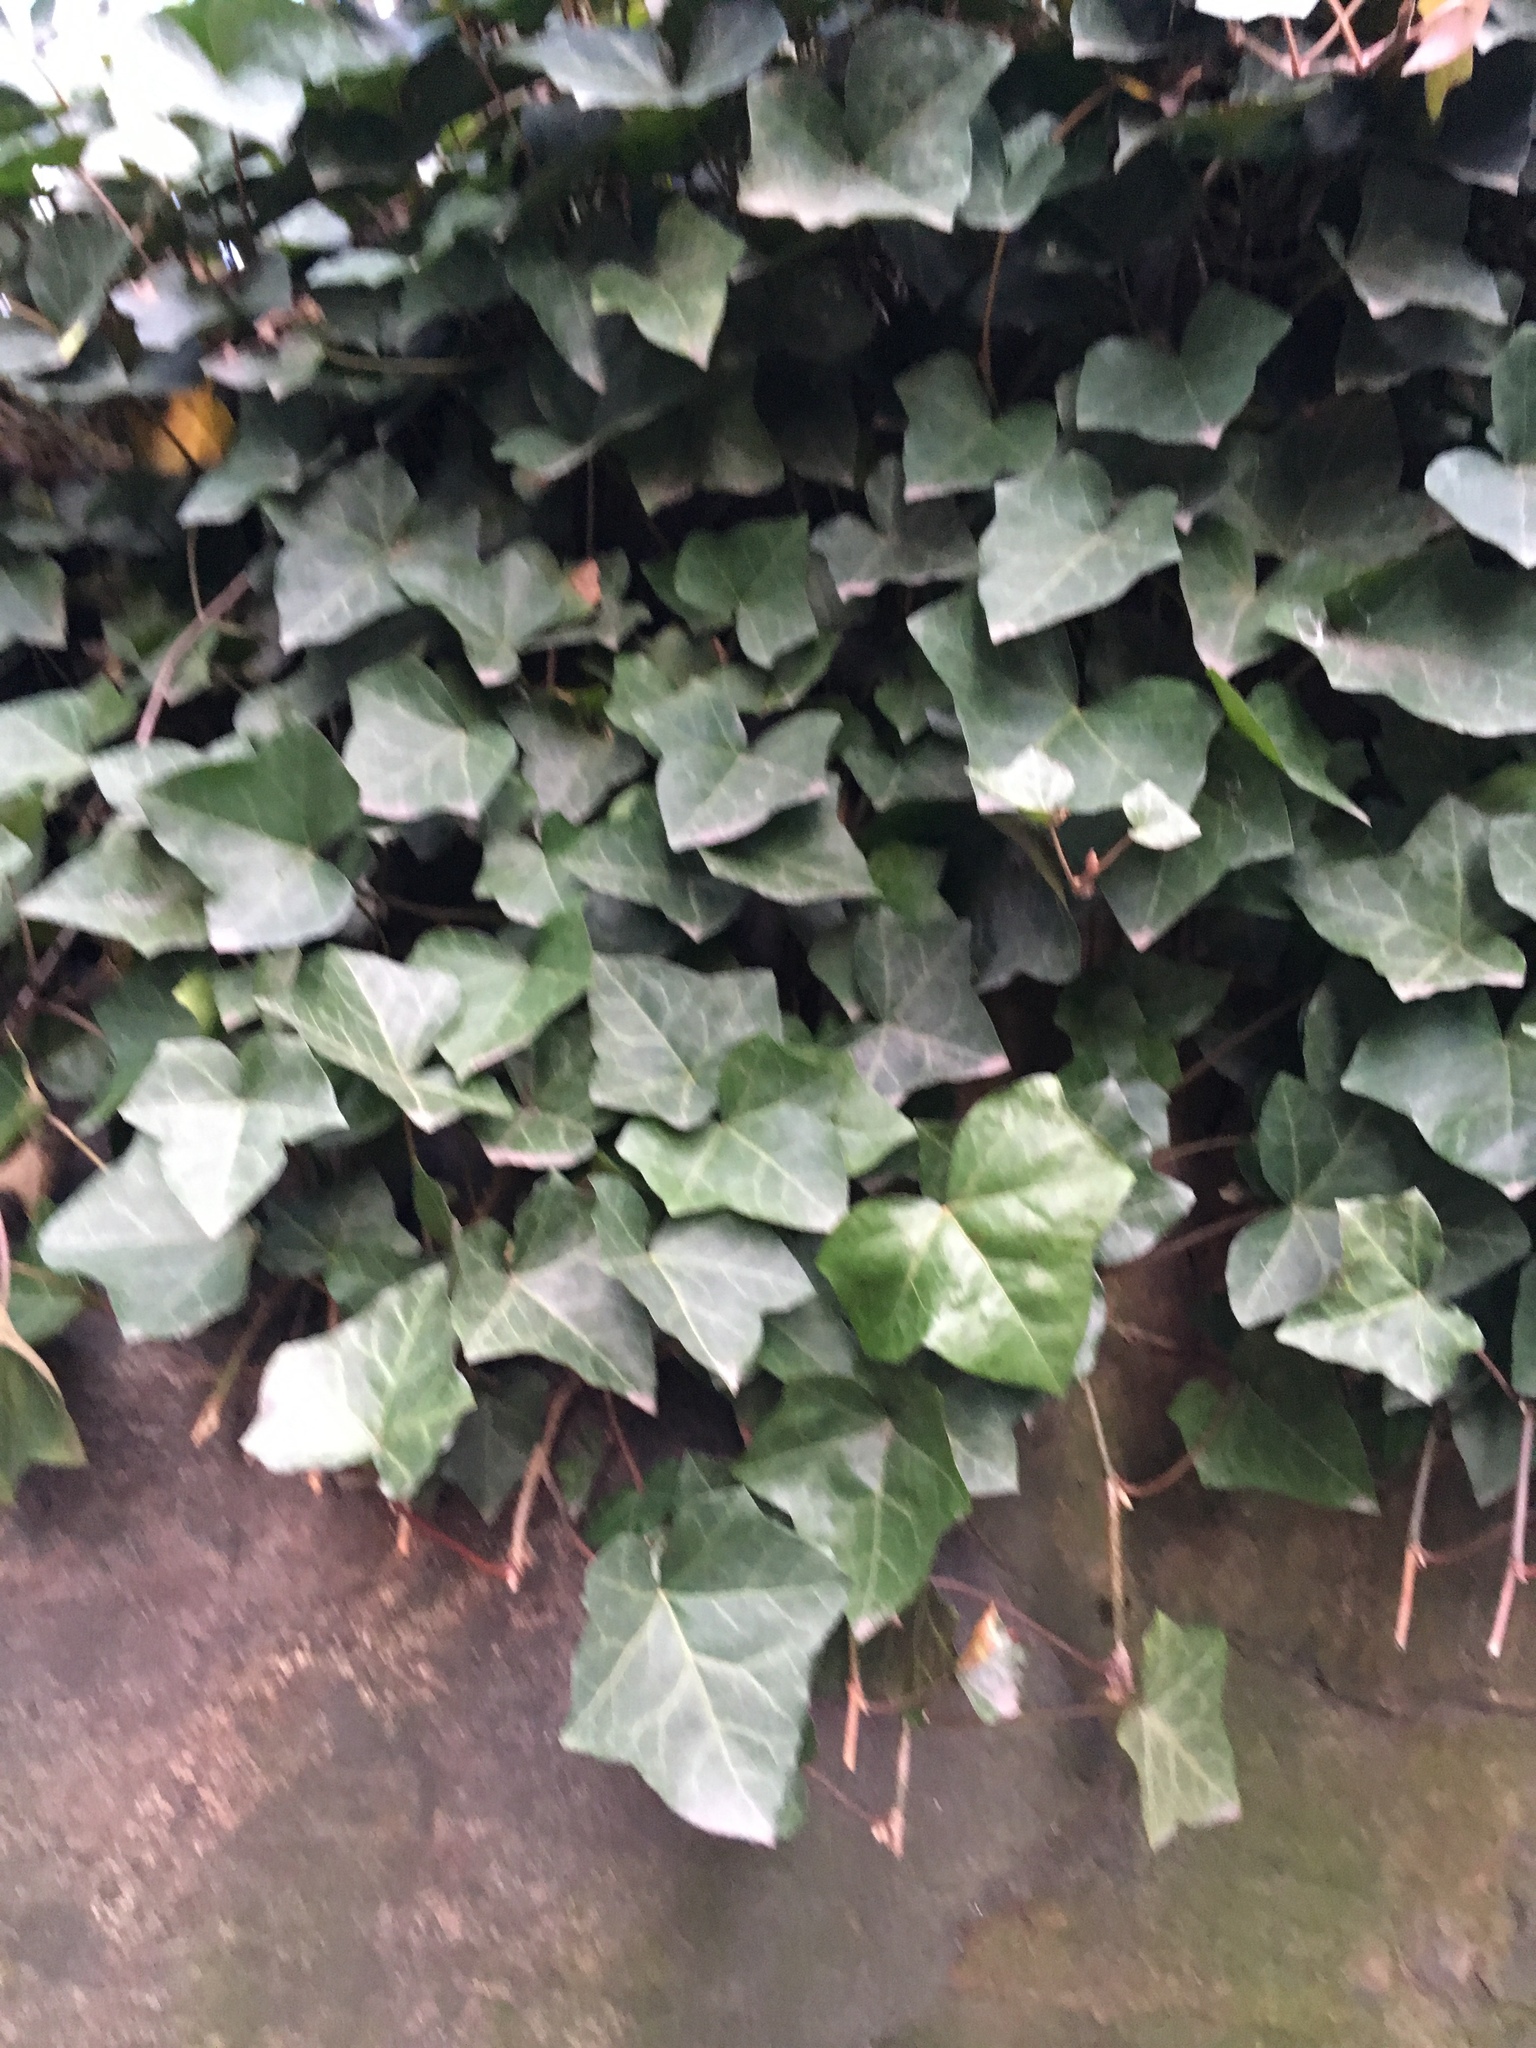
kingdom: Plantae
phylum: Tracheophyta
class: Magnoliopsida
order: Apiales
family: Araliaceae
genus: Hedera
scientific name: Hedera helix
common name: Ivy
